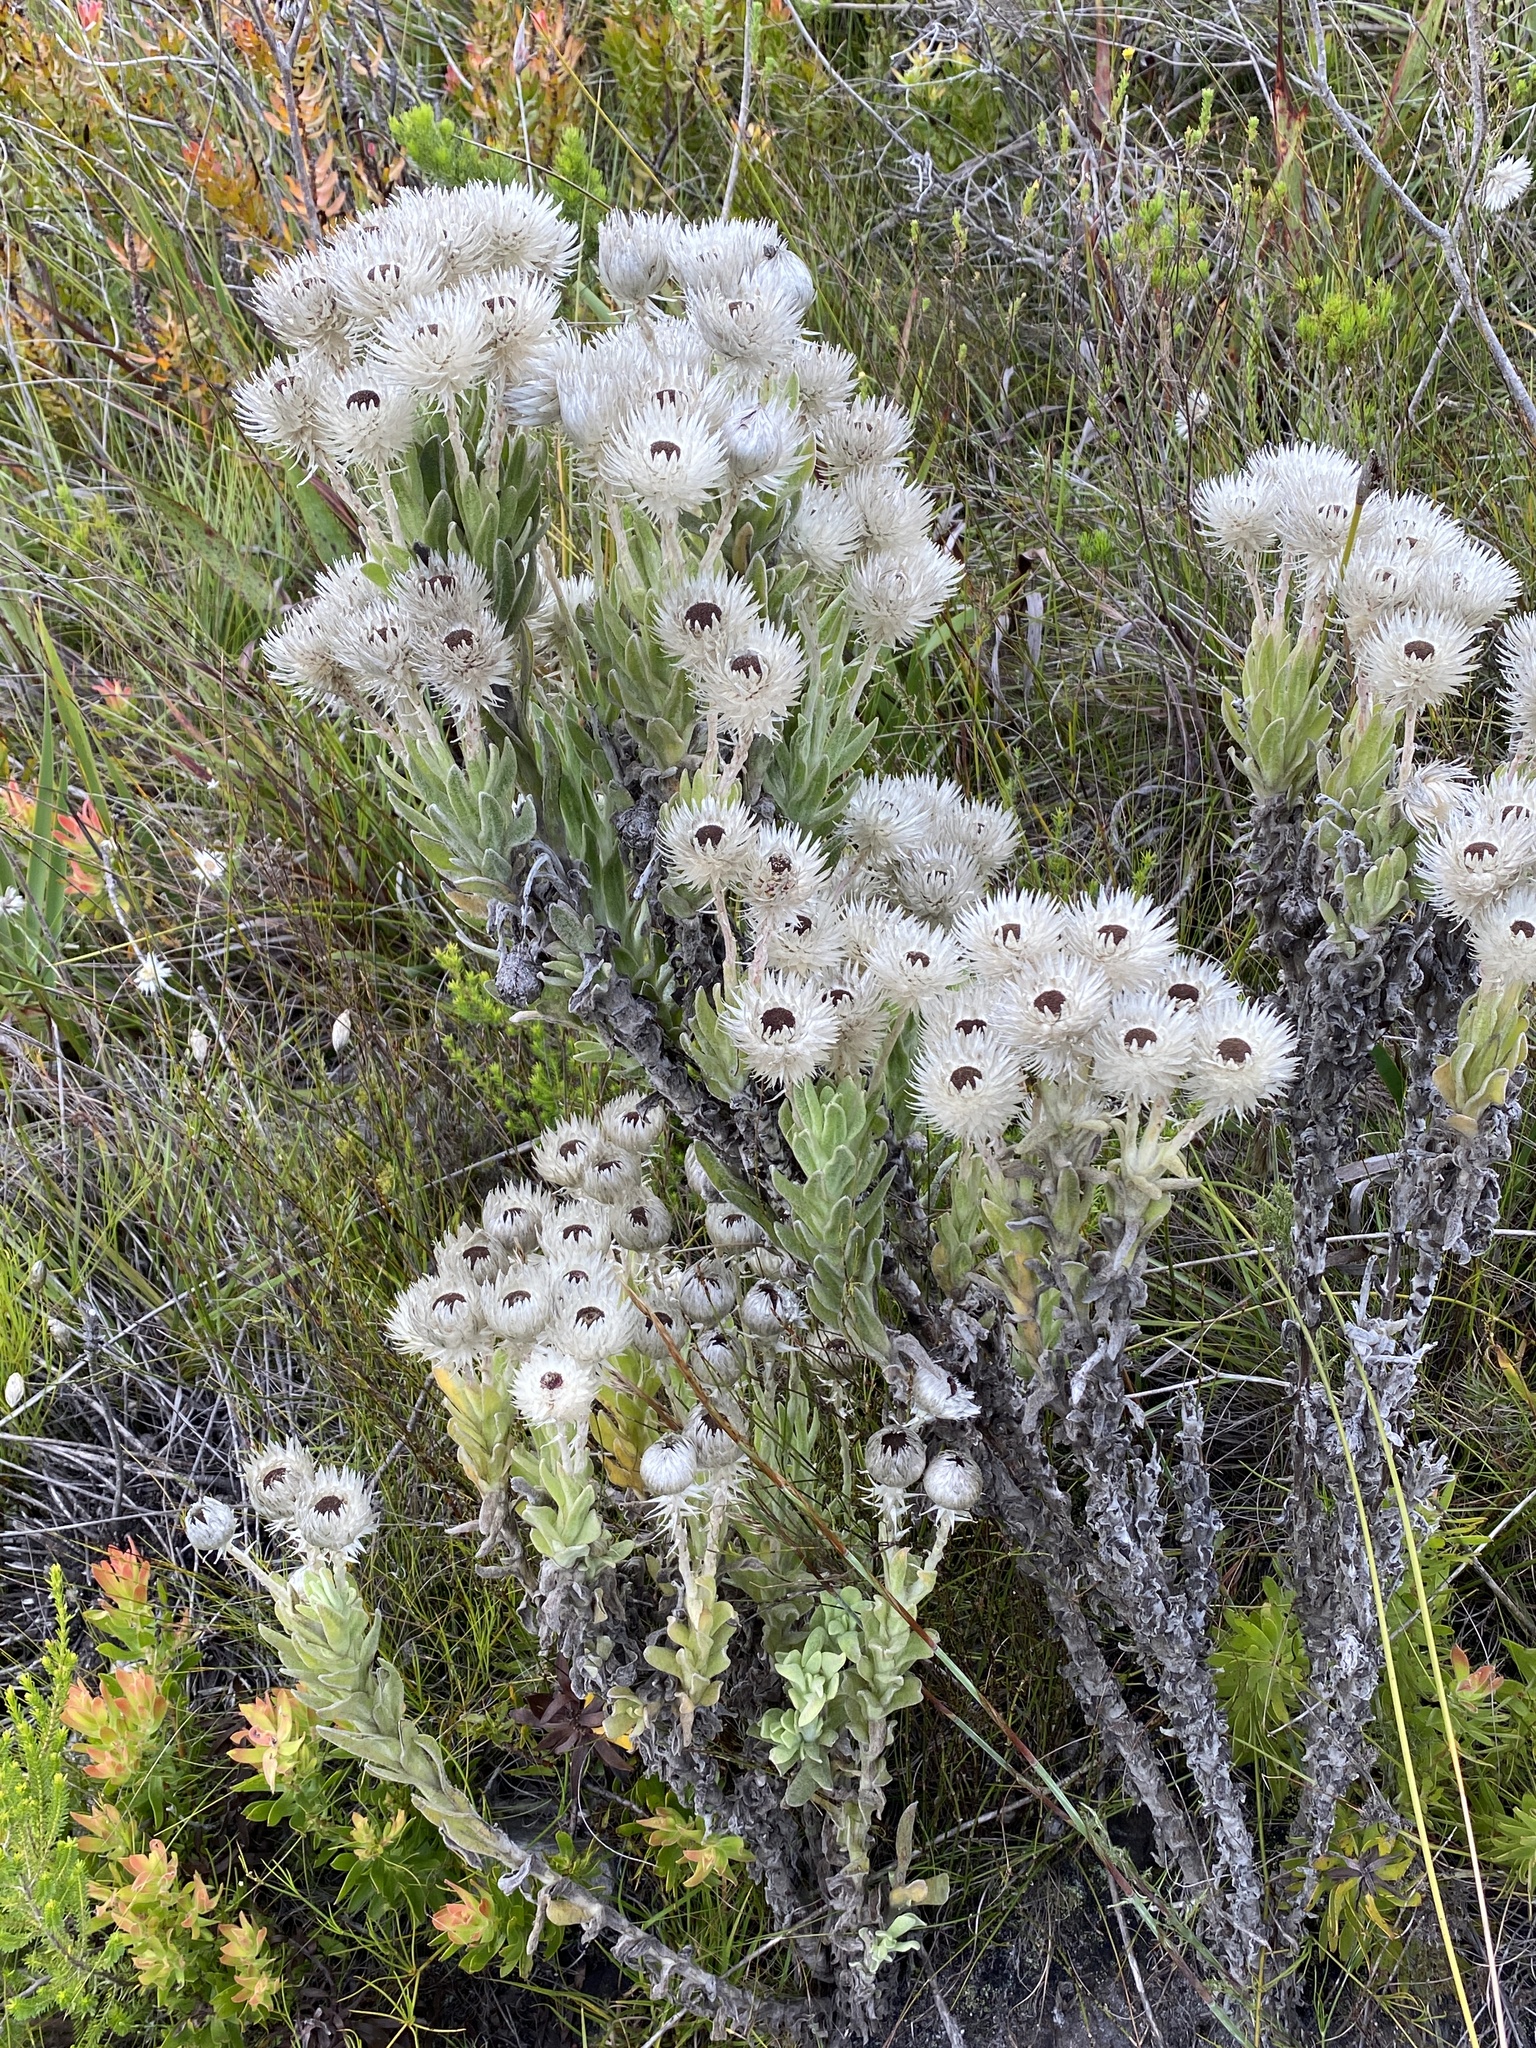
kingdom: Plantae
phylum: Tracheophyta
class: Magnoliopsida
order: Asterales
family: Asteraceae
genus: Syncarpha
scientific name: Syncarpha vestita
